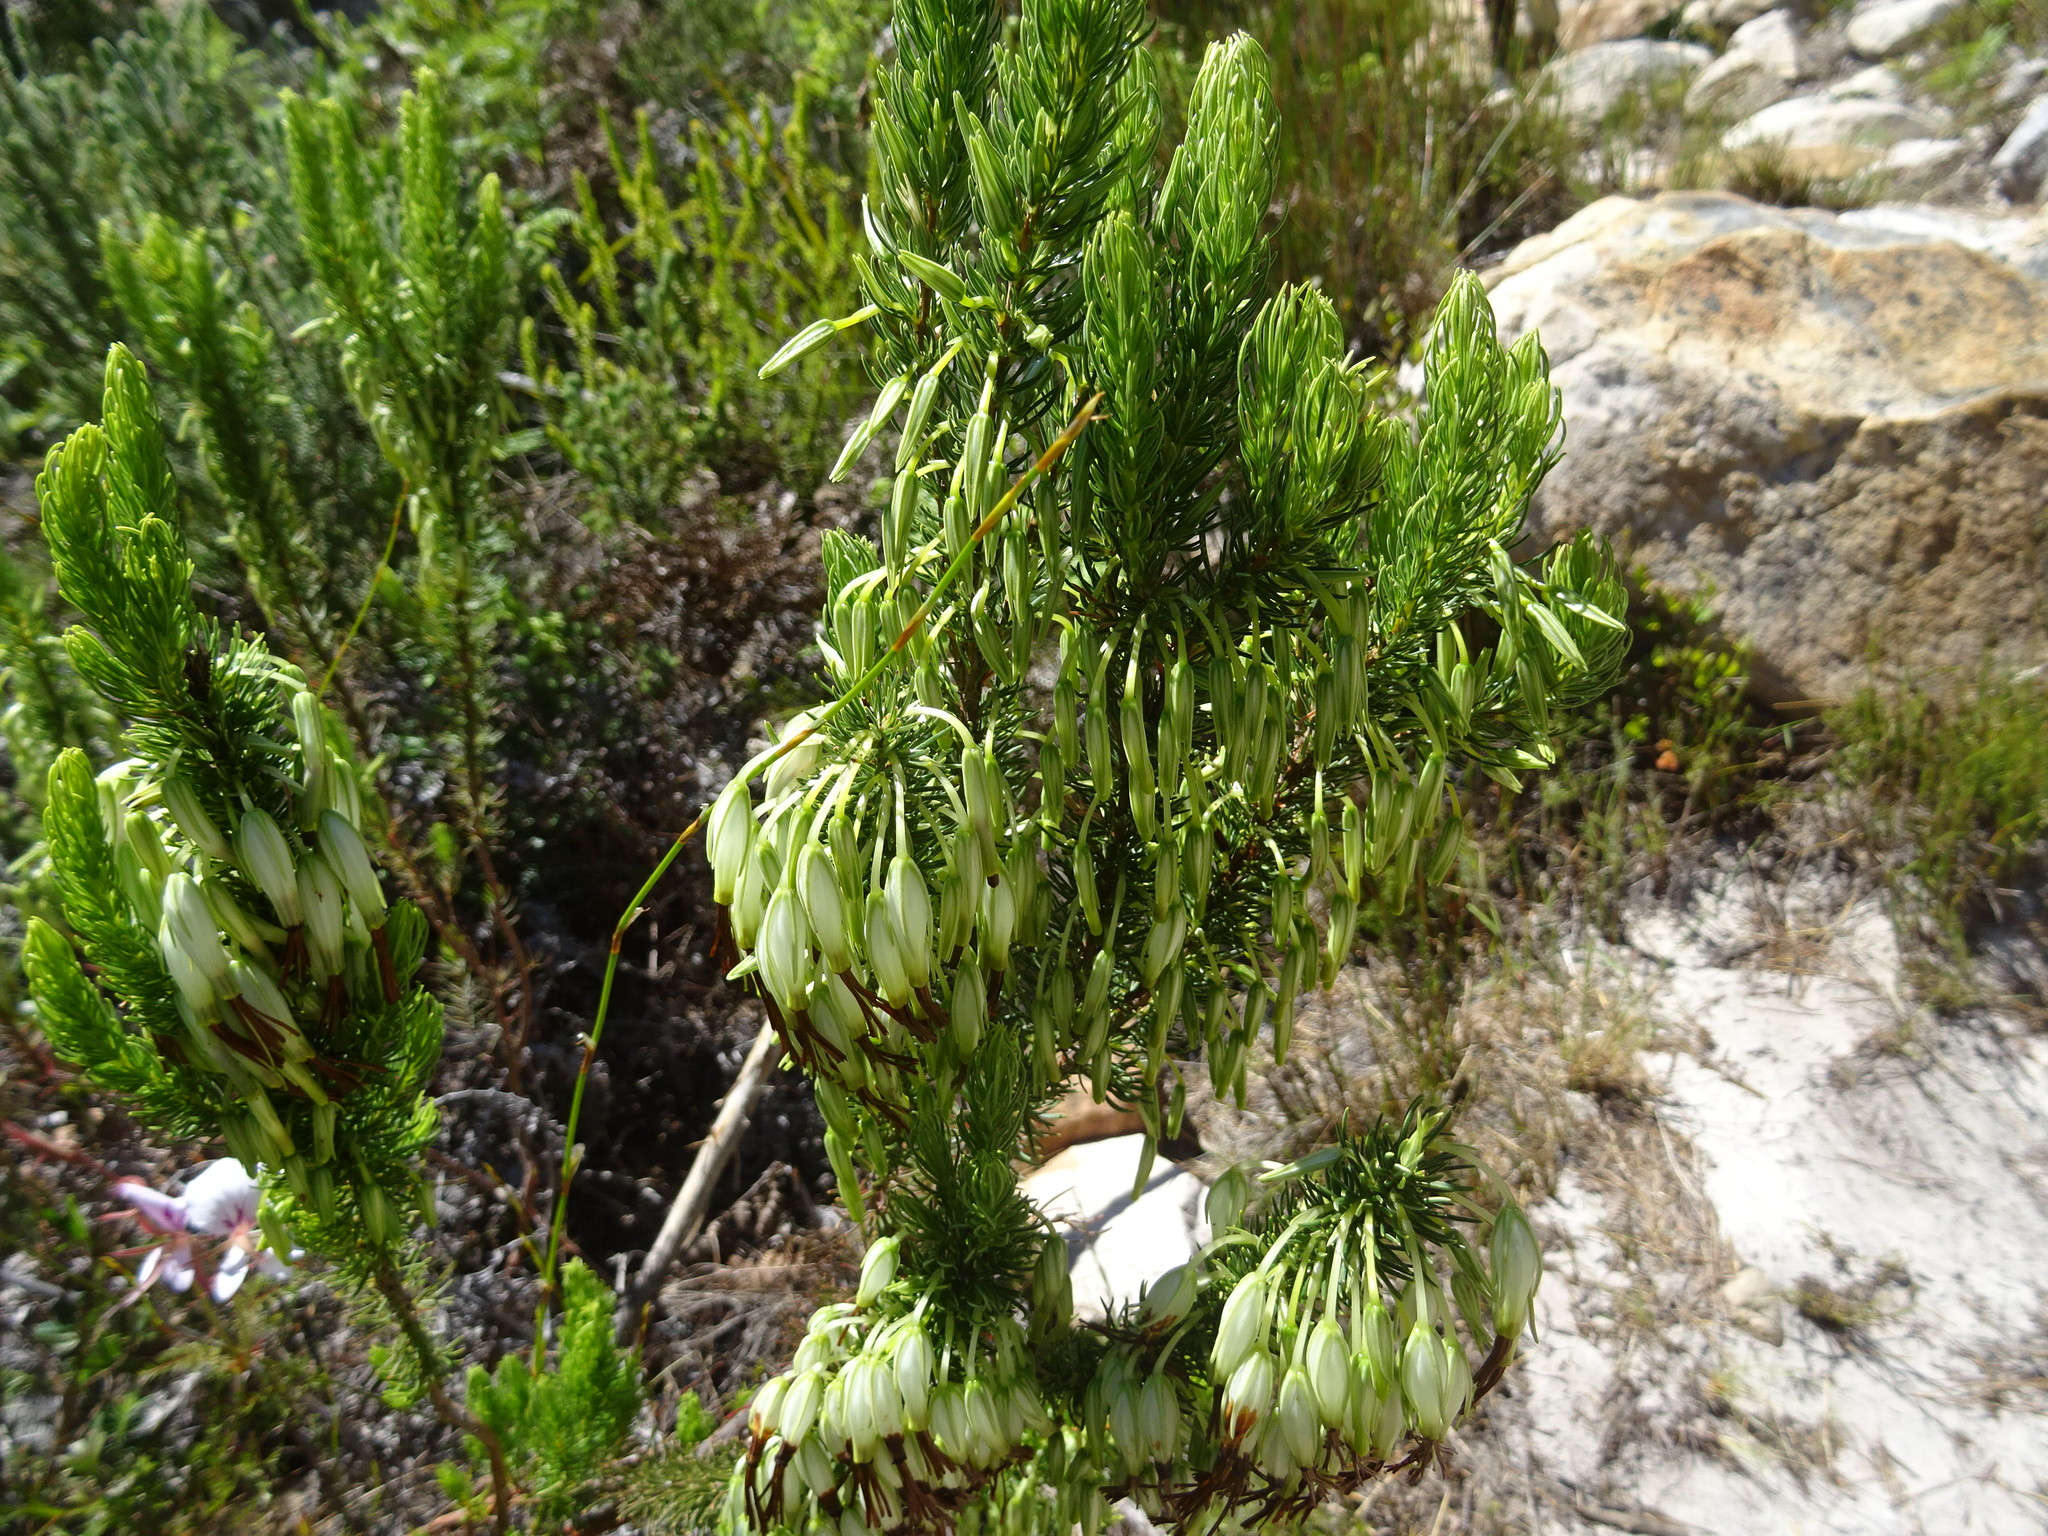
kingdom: Plantae
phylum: Tracheophyta
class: Magnoliopsida
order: Ericales
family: Ericaceae
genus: Erica
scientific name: Erica plukenetii
